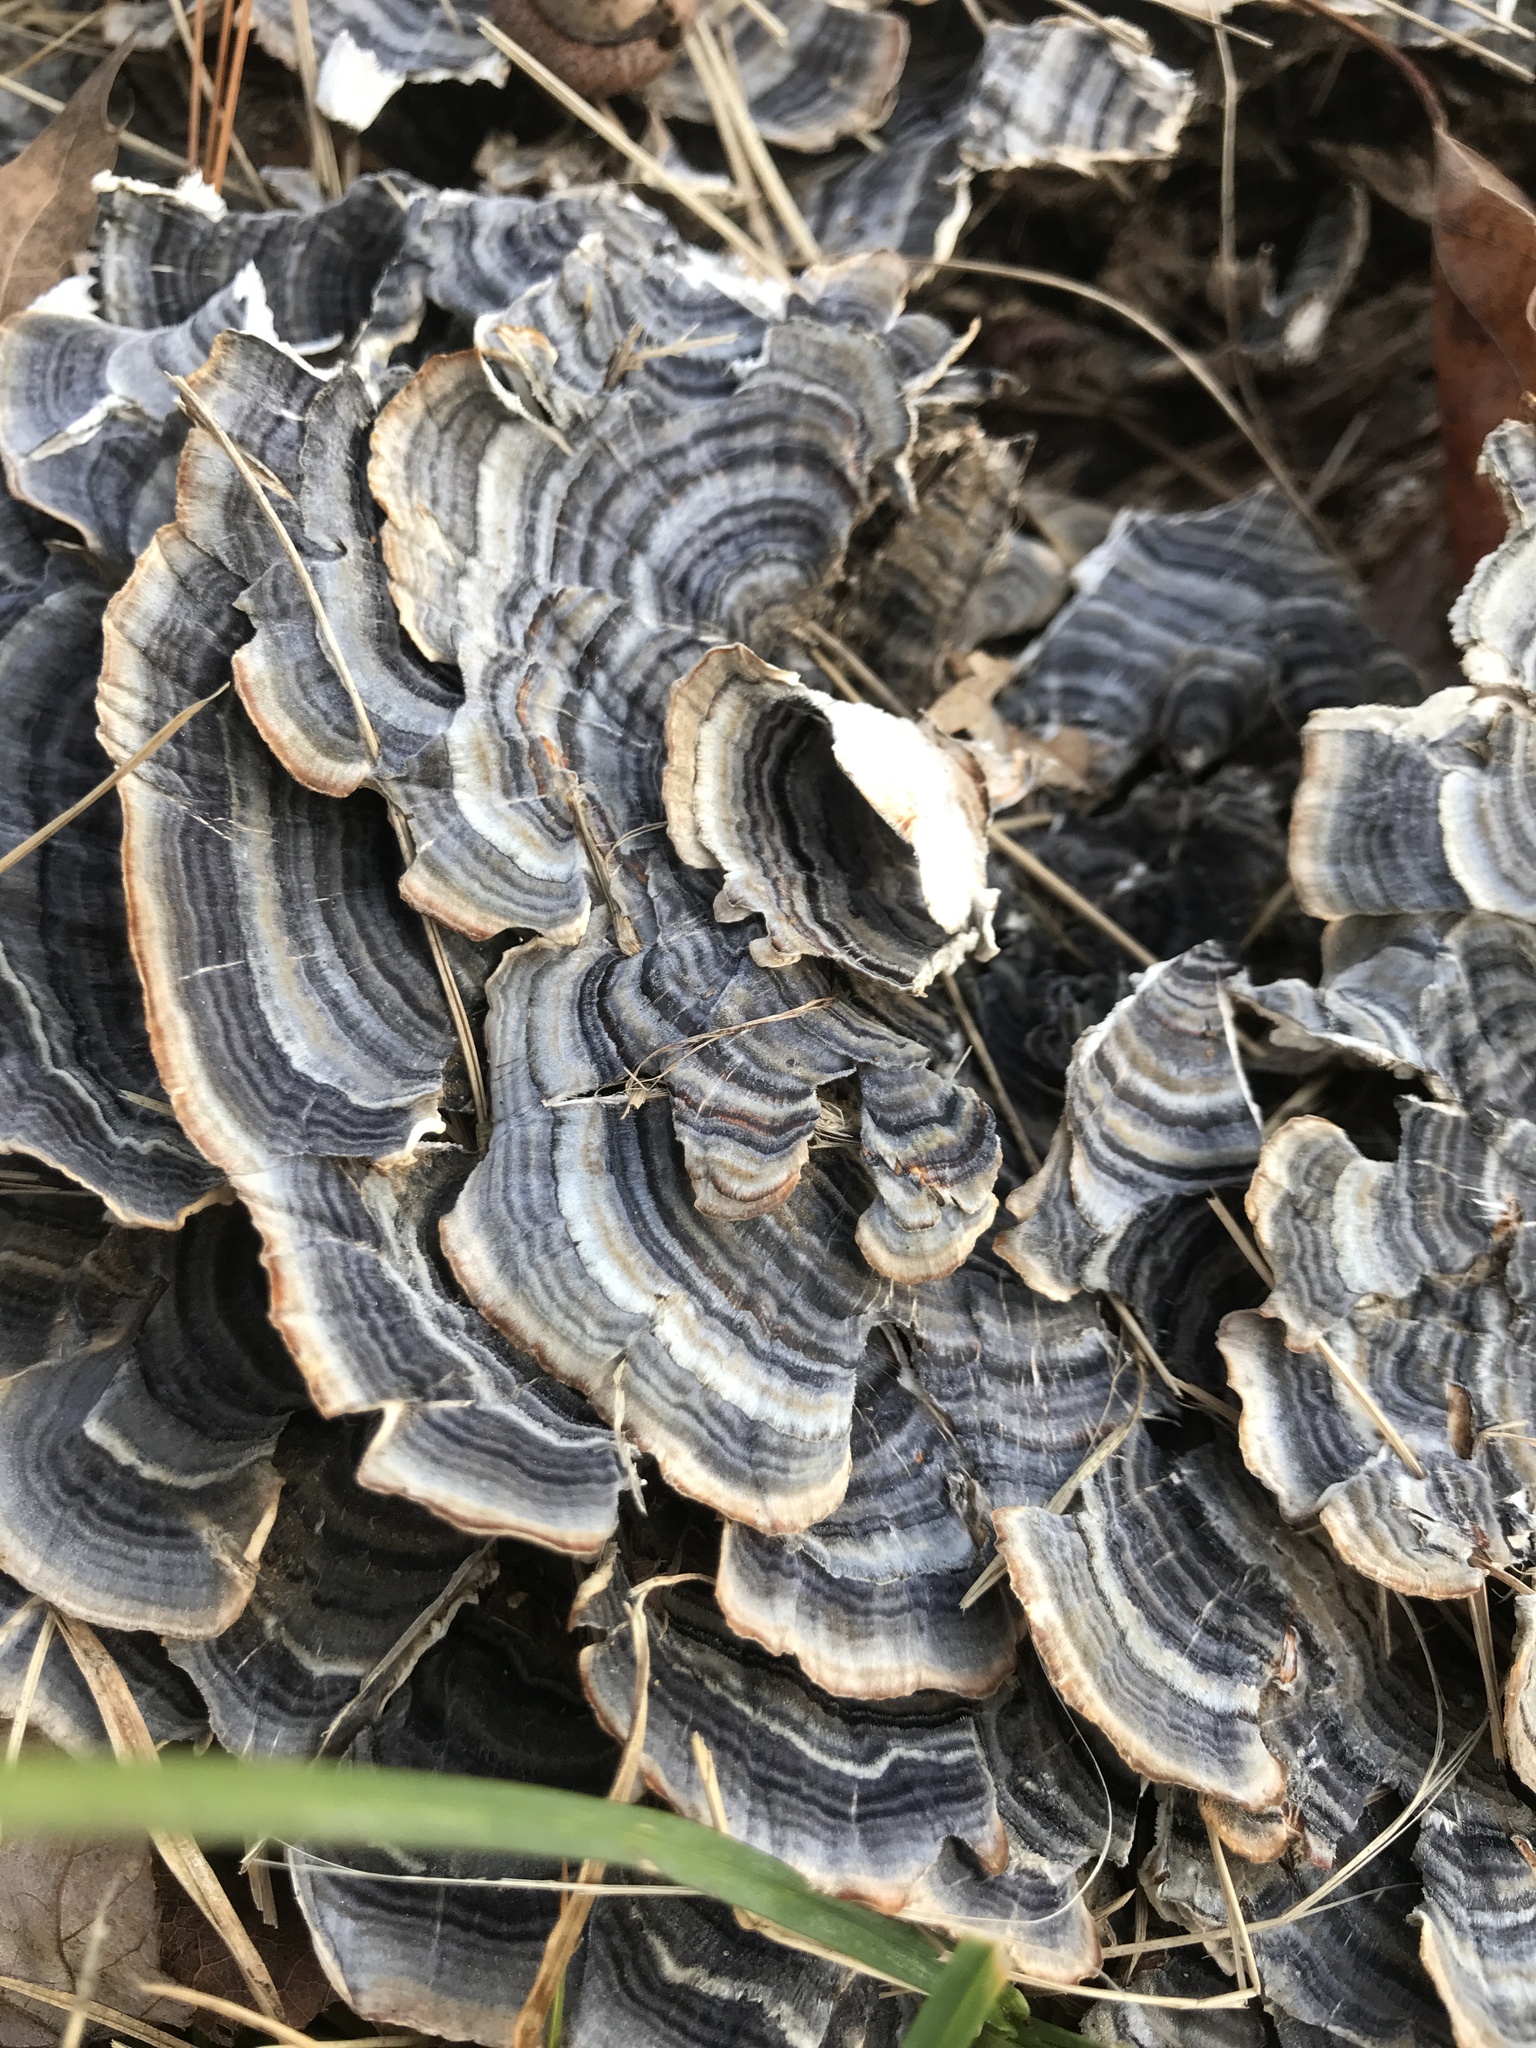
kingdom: Fungi
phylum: Basidiomycota
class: Agaricomycetes
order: Polyporales
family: Polyporaceae
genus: Trametes
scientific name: Trametes versicolor
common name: Turkeytail
